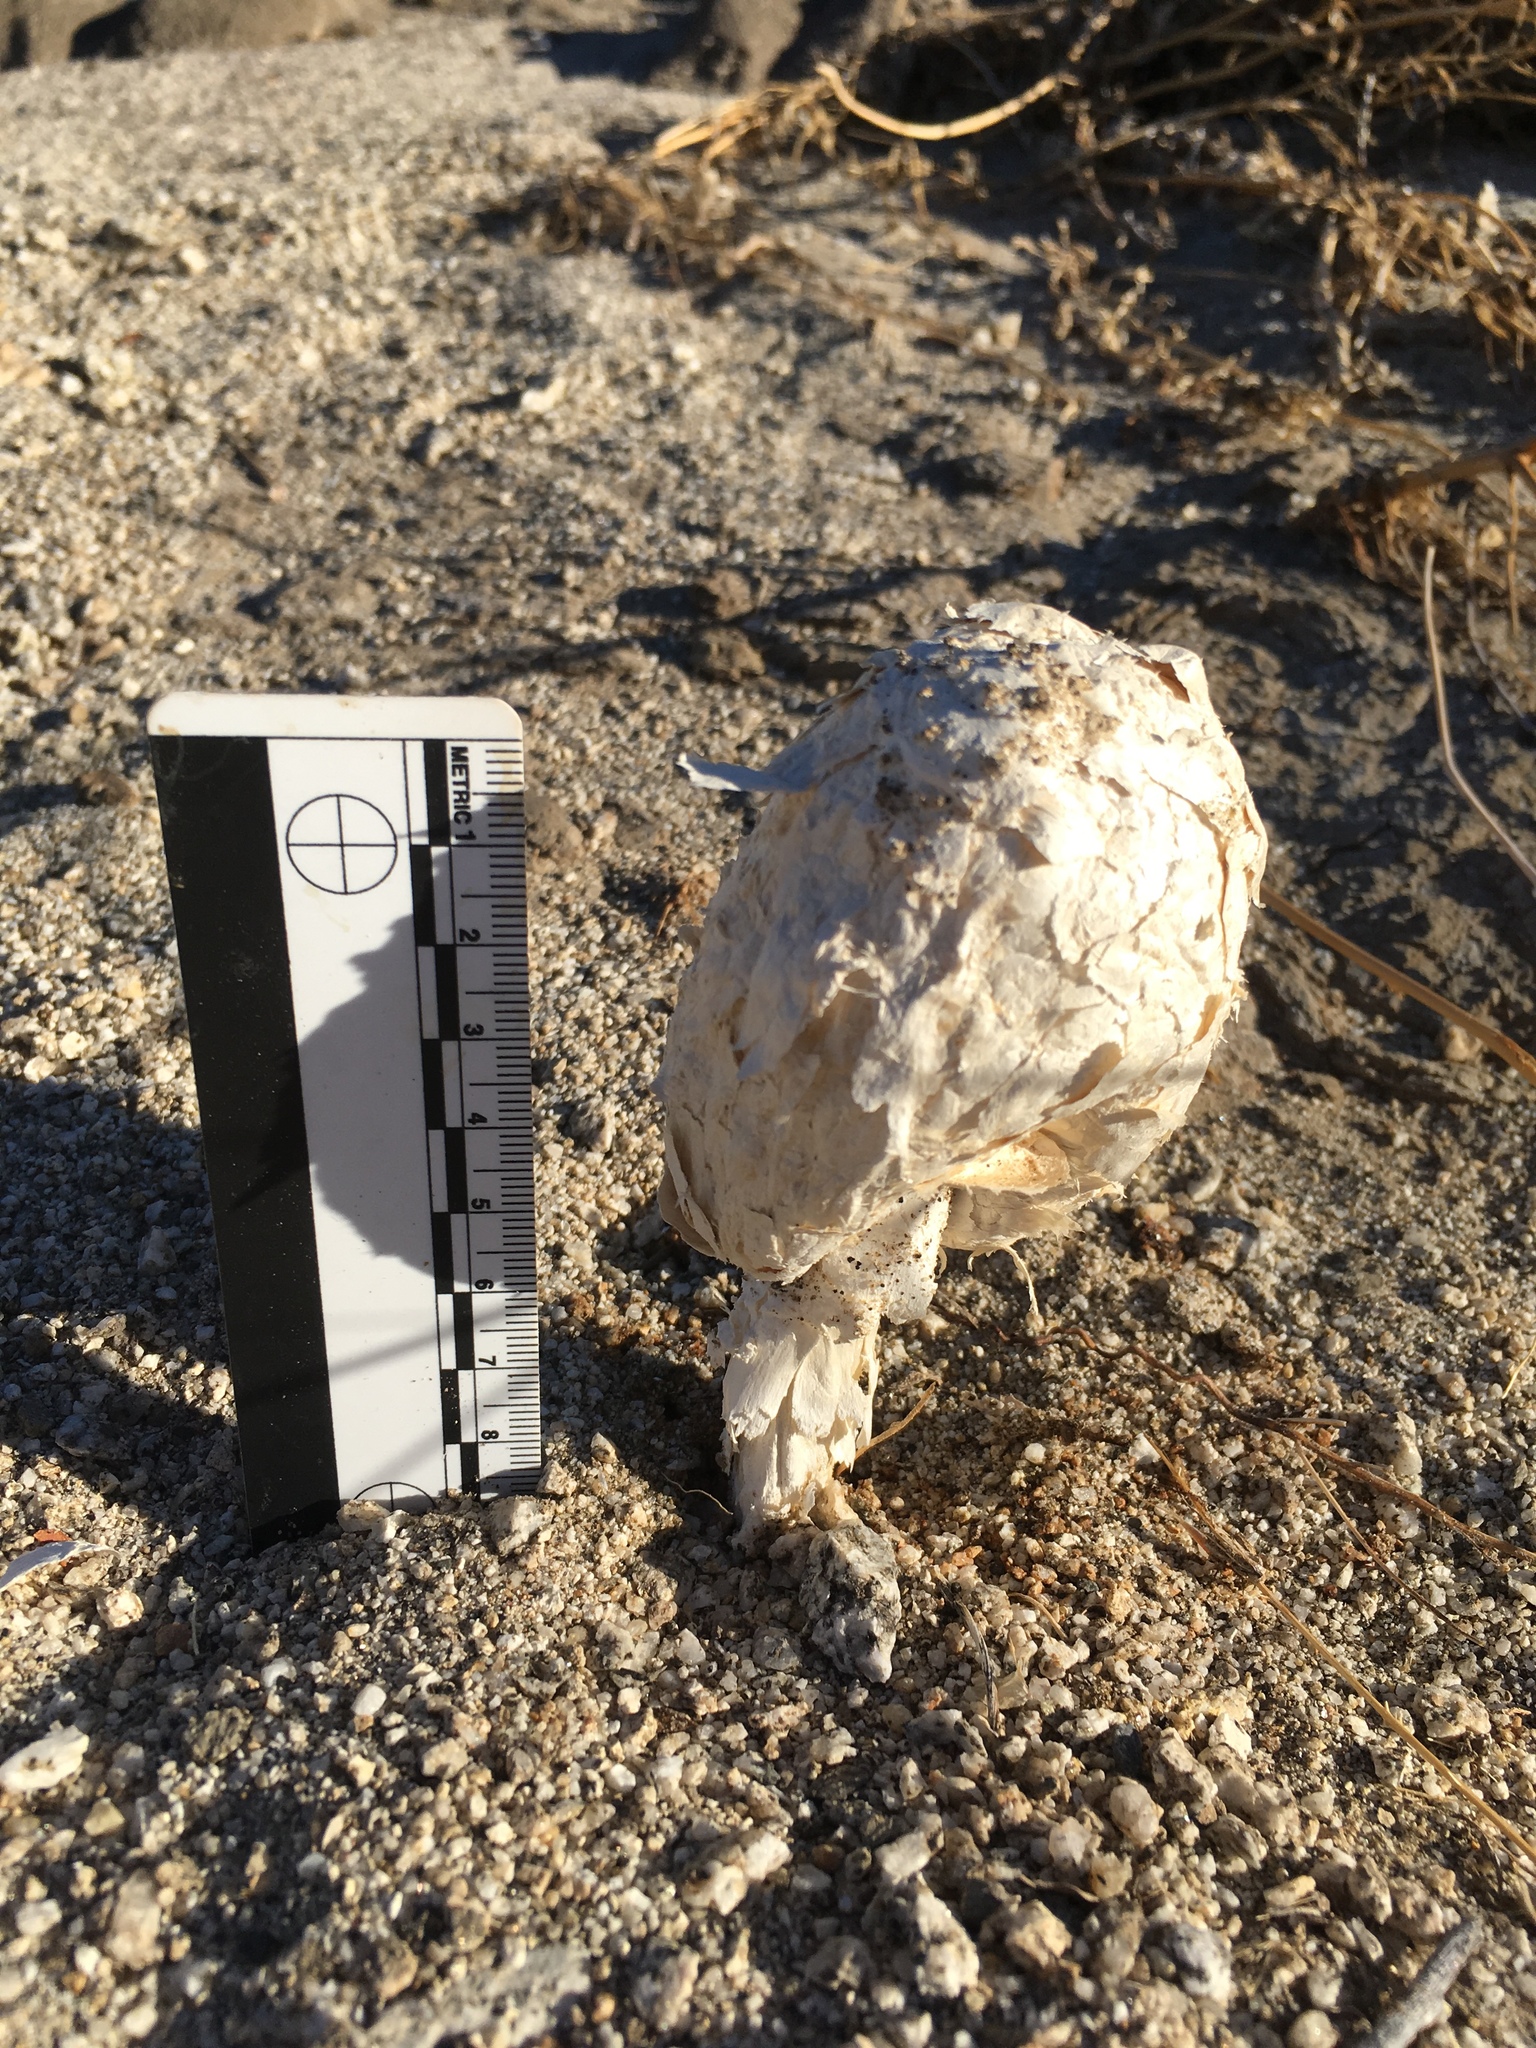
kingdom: Fungi
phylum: Basidiomycota
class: Agaricomycetes
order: Agaricales
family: Agaricaceae
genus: Podaxis
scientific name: Podaxis pistillaris
